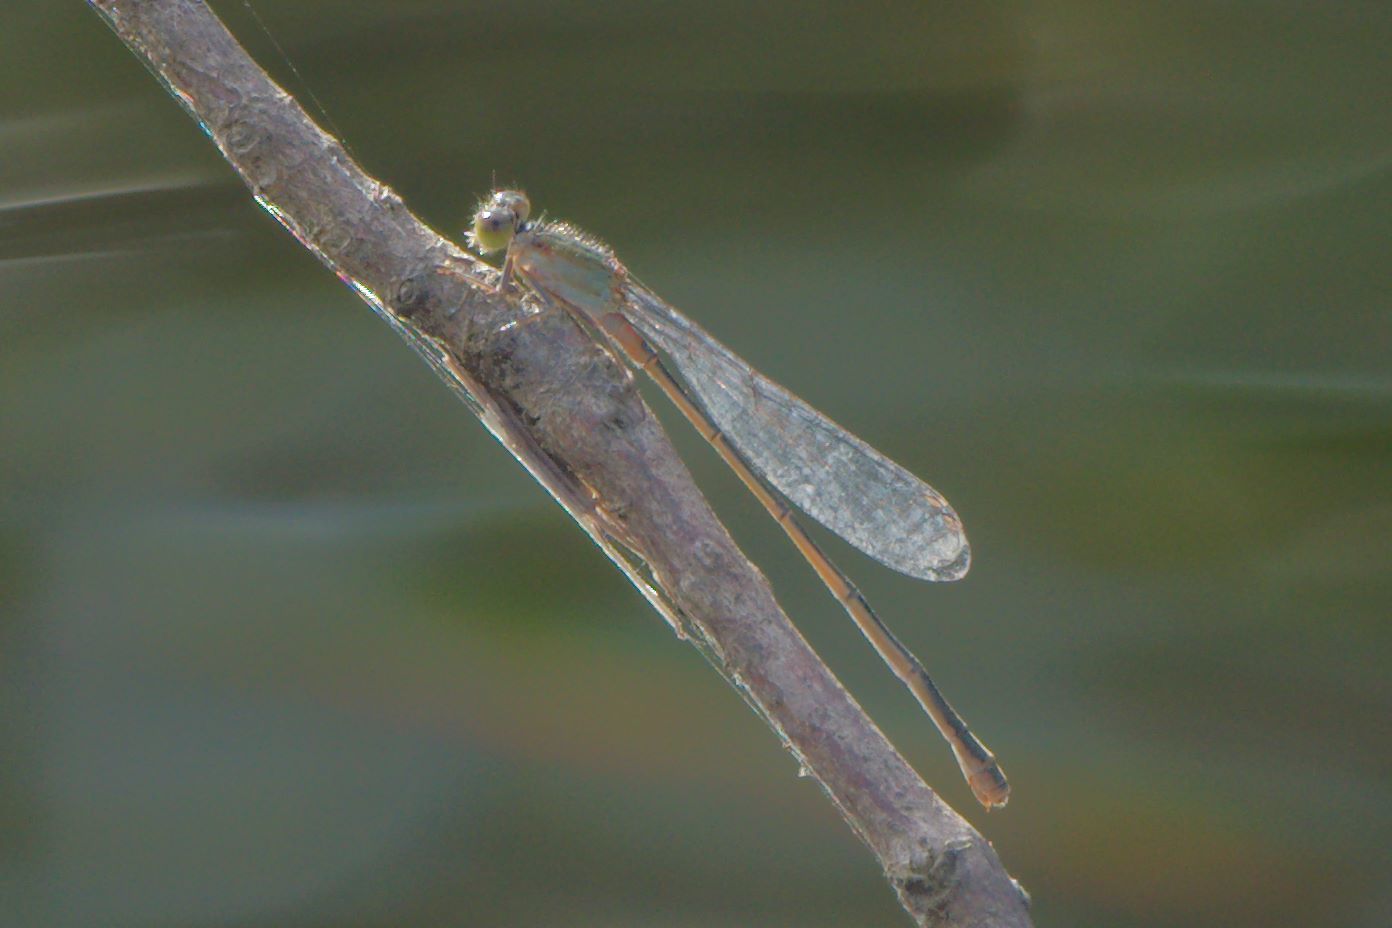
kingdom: Animalia
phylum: Arthropoda
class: Insecta
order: Odonata
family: Coenagrionidae
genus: Ischnura
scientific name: Ischnura ramburii
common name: Rambur's forktail
